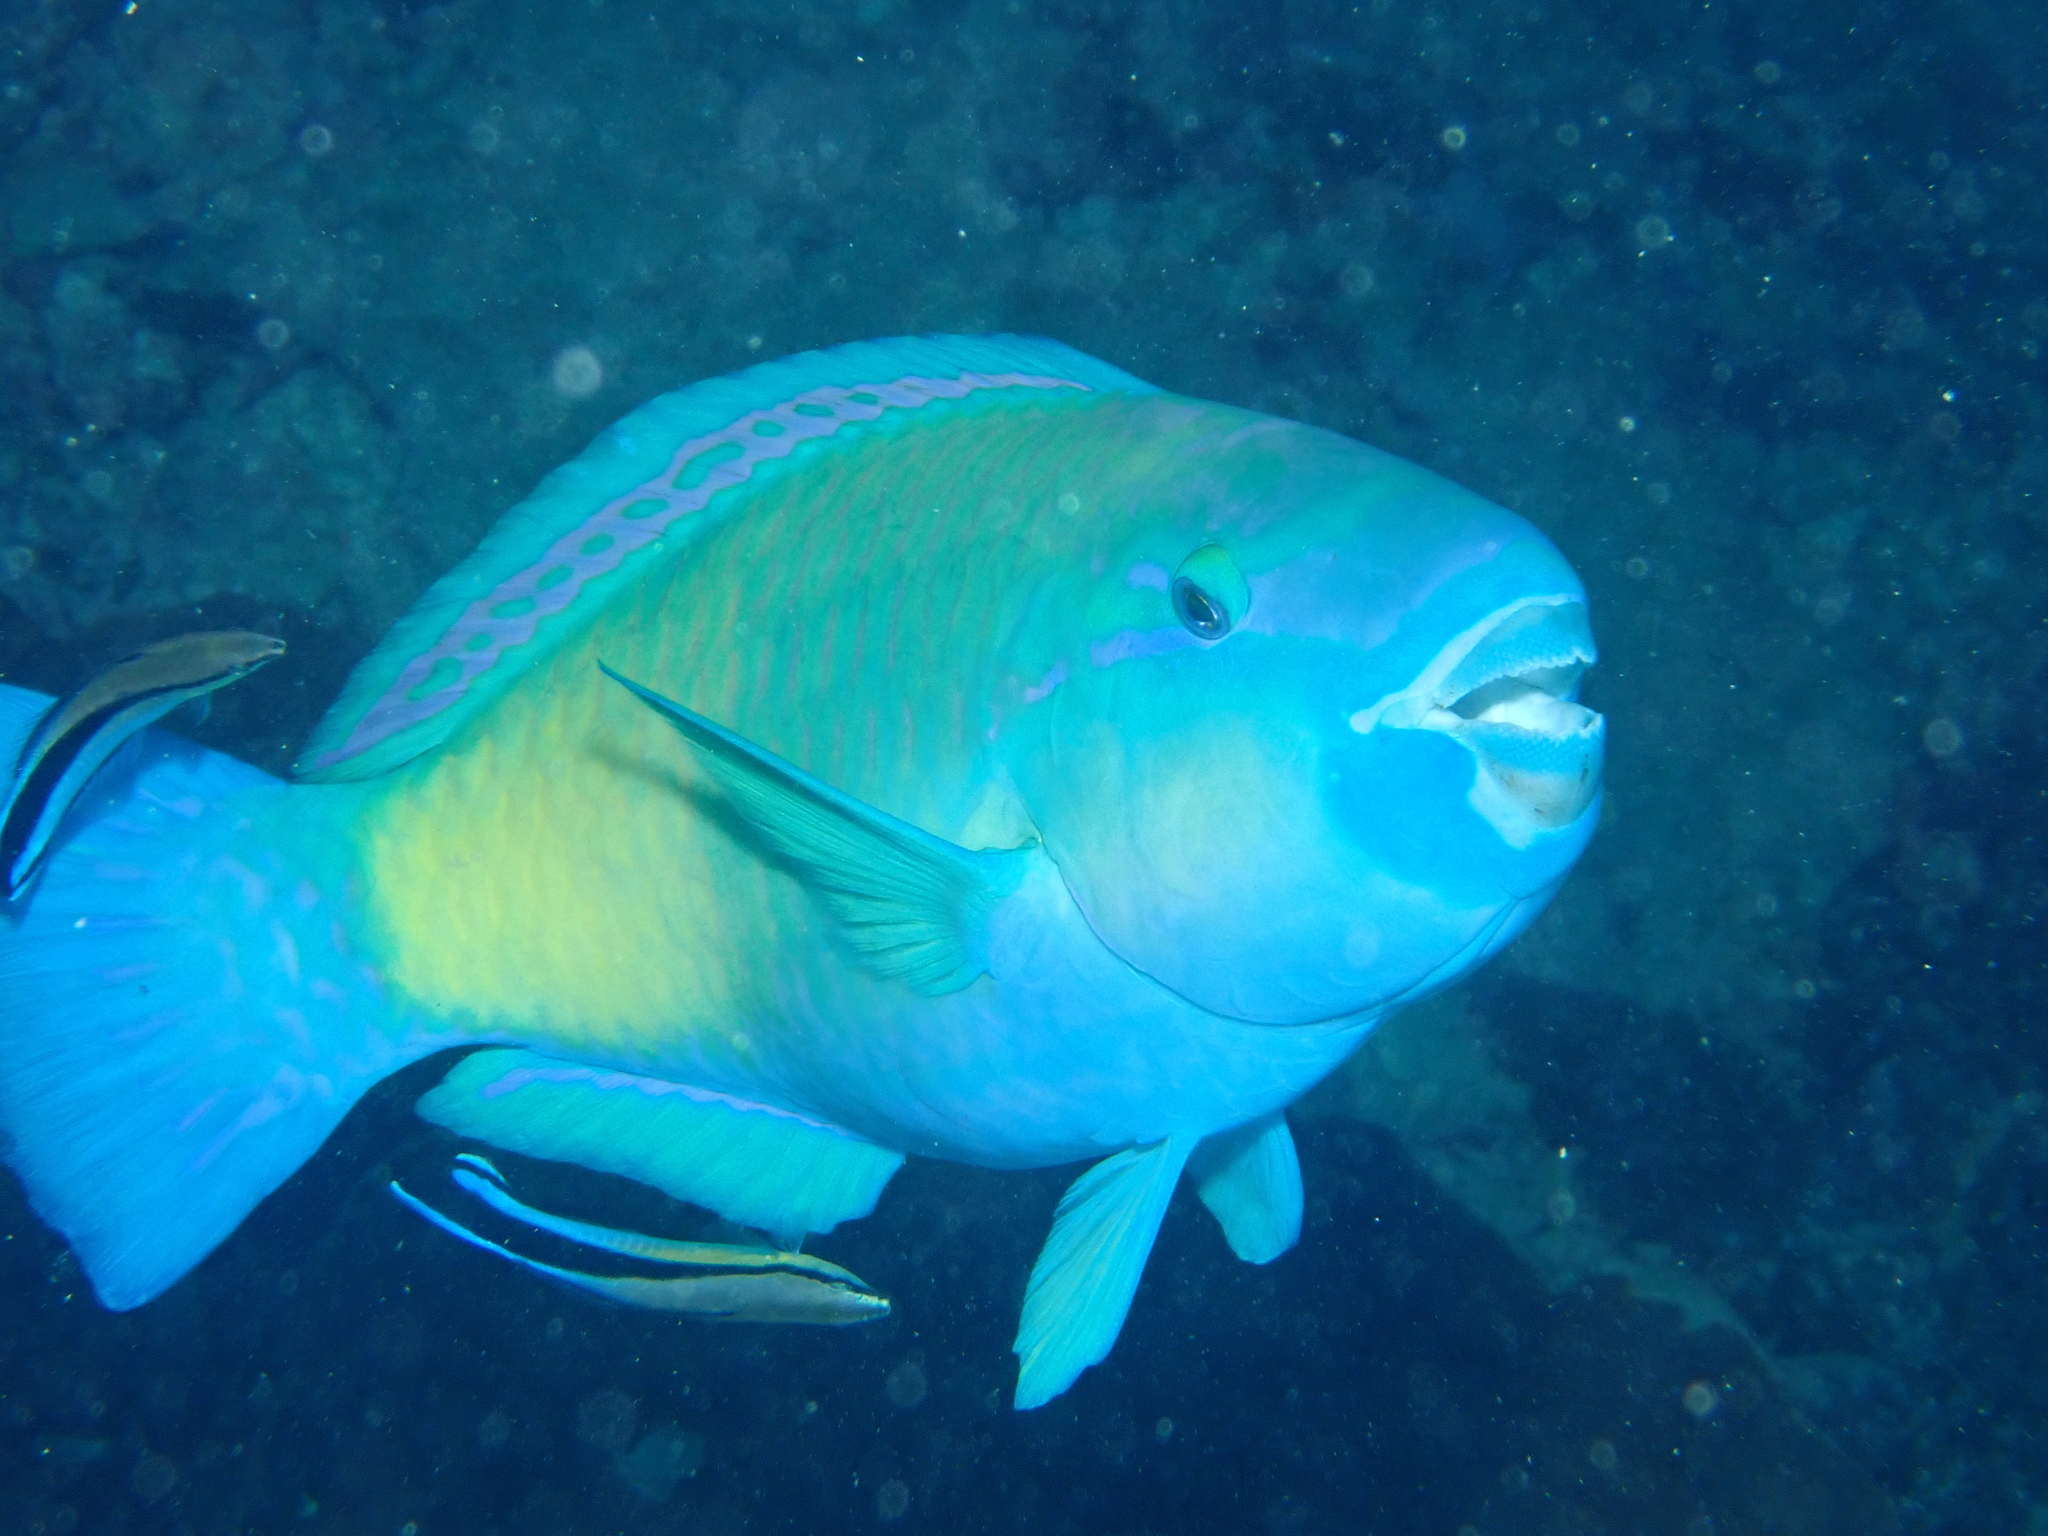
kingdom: Animalia
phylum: Chordata
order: Perciformes
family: Scaridae
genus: Chlorurus
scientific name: Chlorurus spilurus
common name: Bullethead parrotfish
